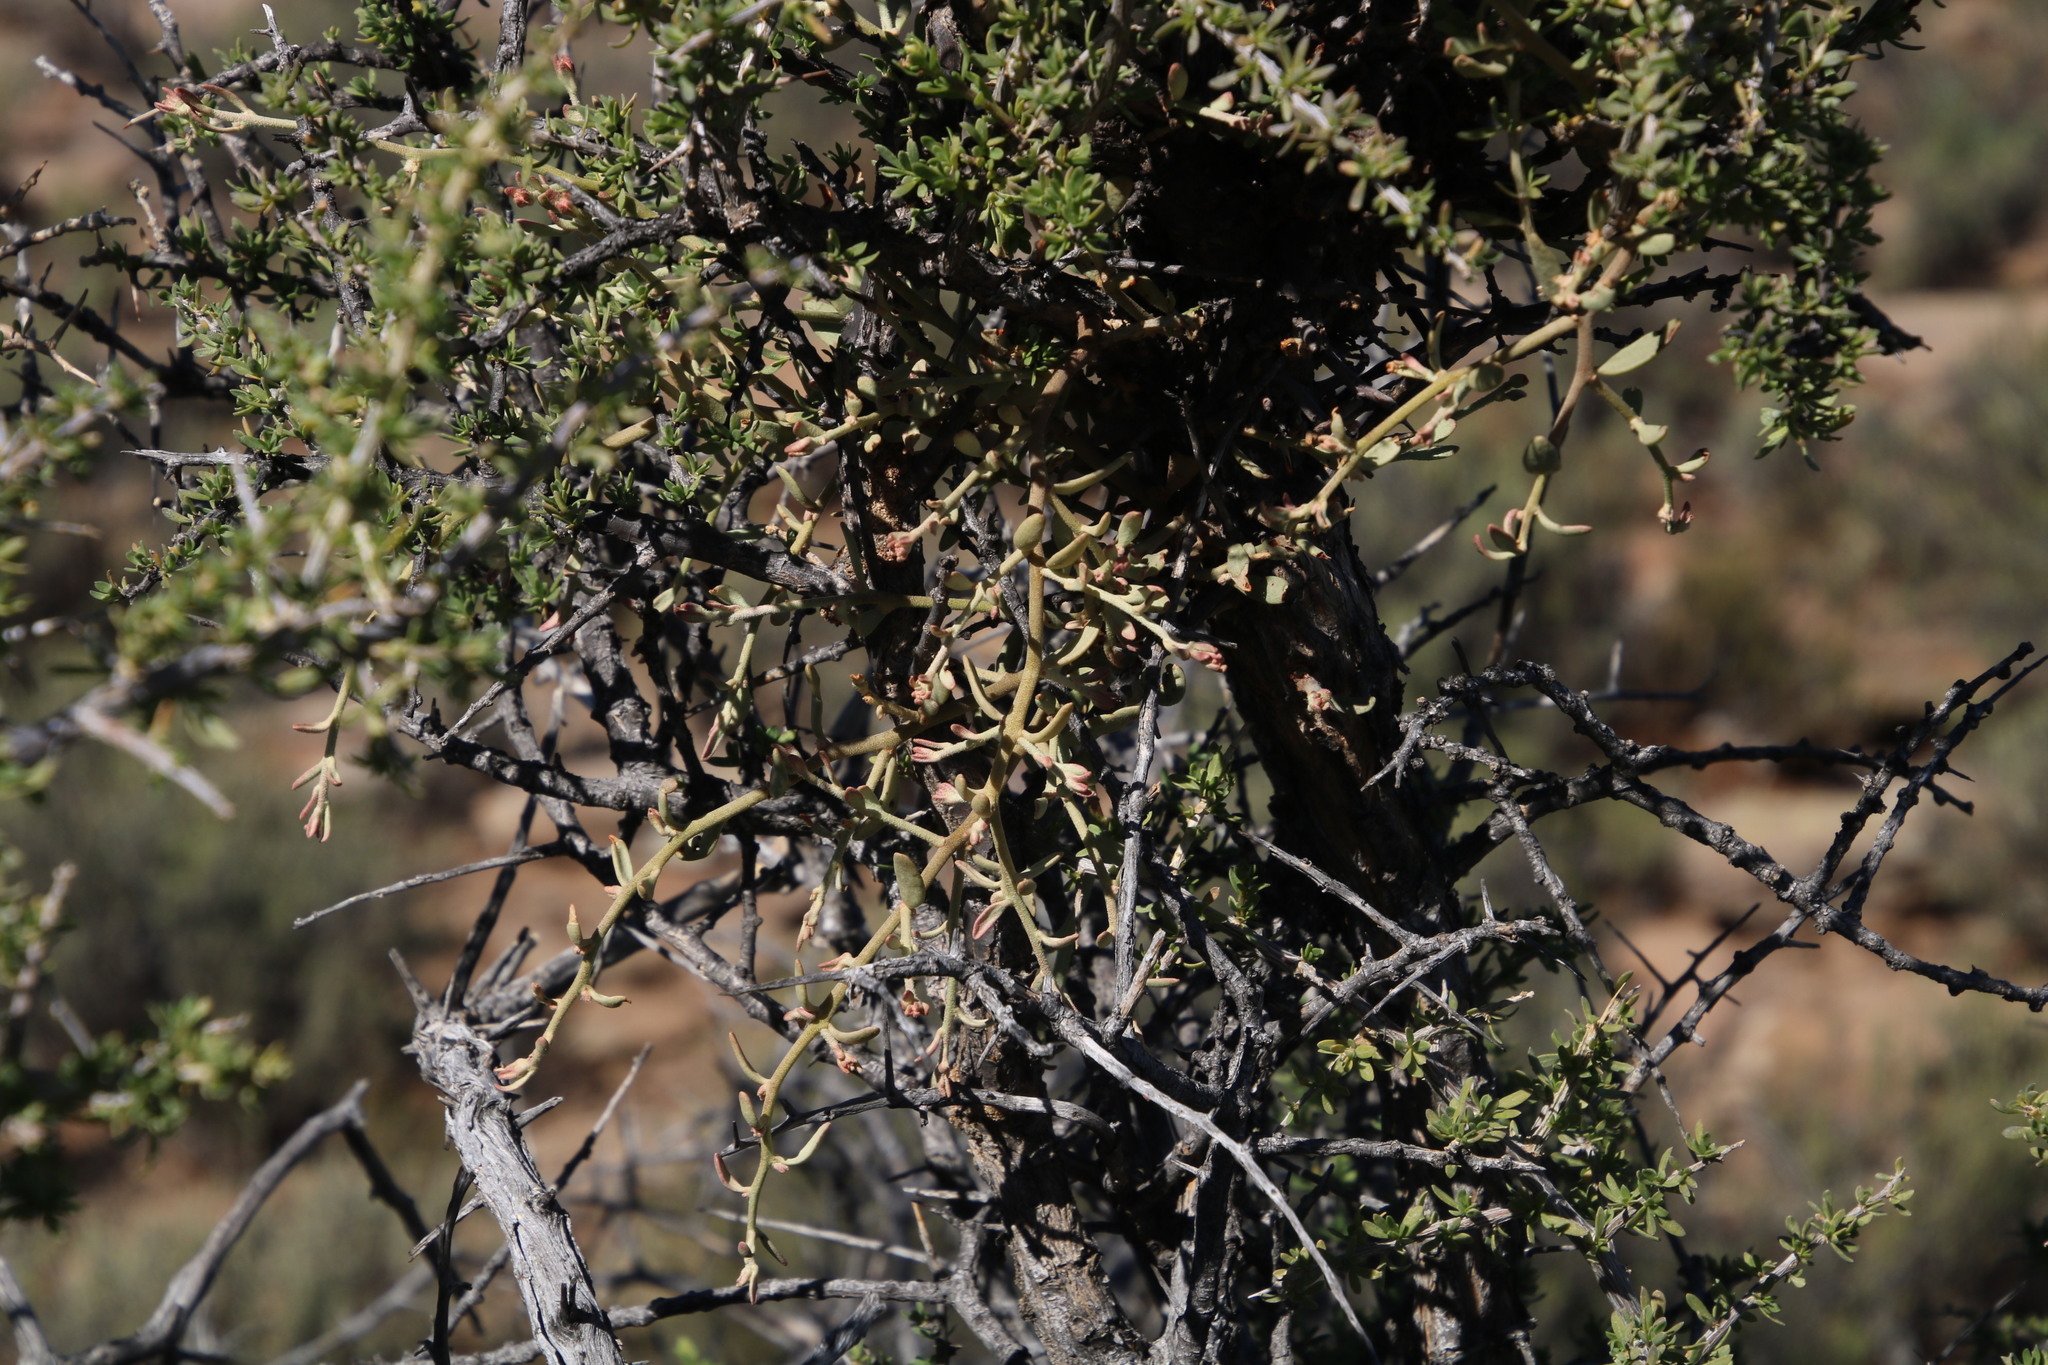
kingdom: Plantae
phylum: Tracheophyta
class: Magnoliopsida
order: Santalales
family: Loranthaceae
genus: Septulina
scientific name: Septulina glauca
